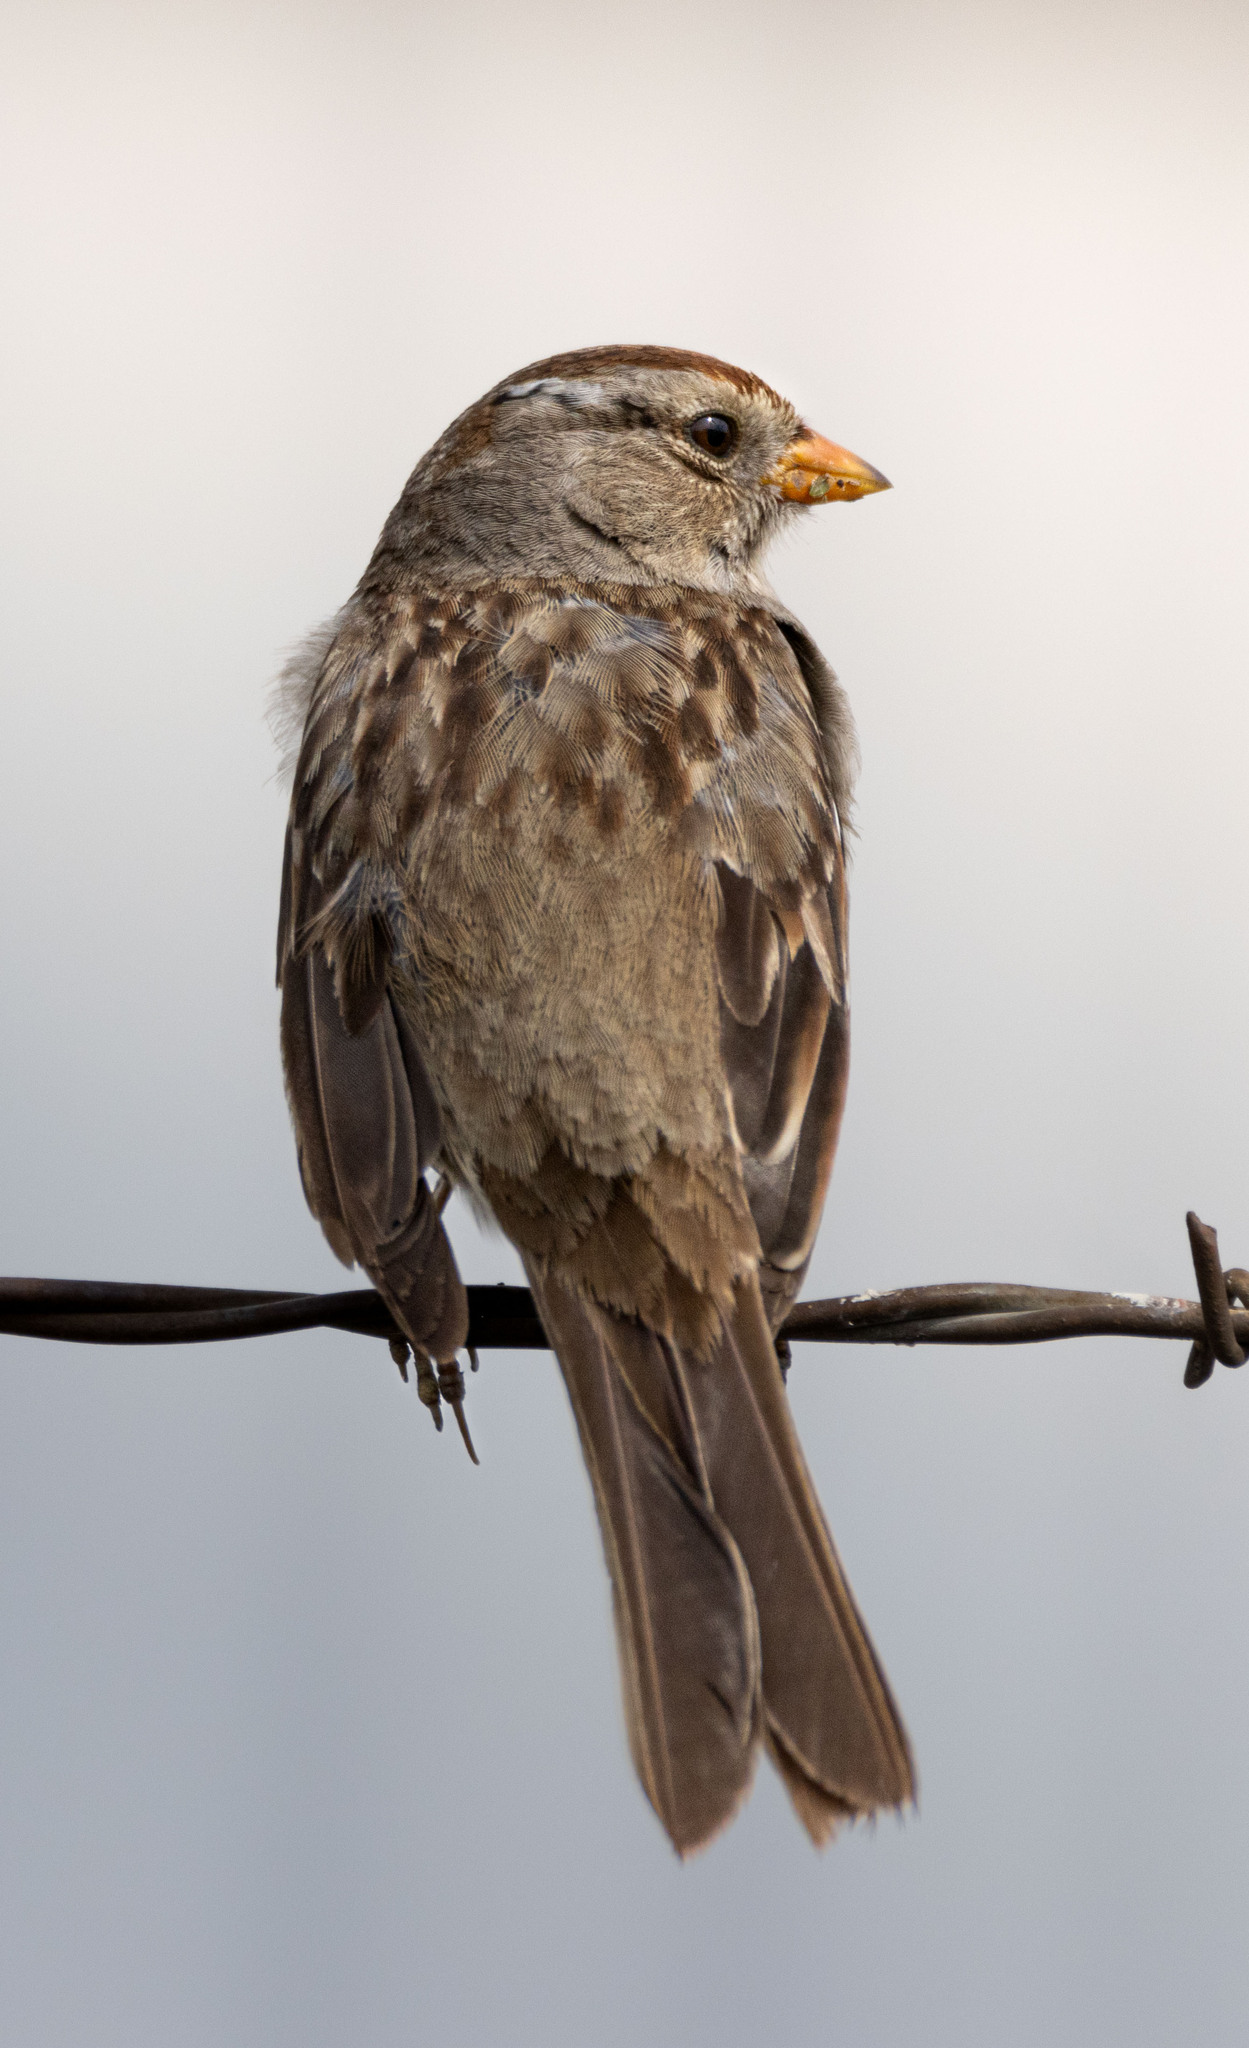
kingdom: Animalia
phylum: Chordata
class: Aves
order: Passeriformes
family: Passerellidae
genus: Zonotrichia
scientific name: Zonotrichia leucophrys
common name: White-crowned sparrow
